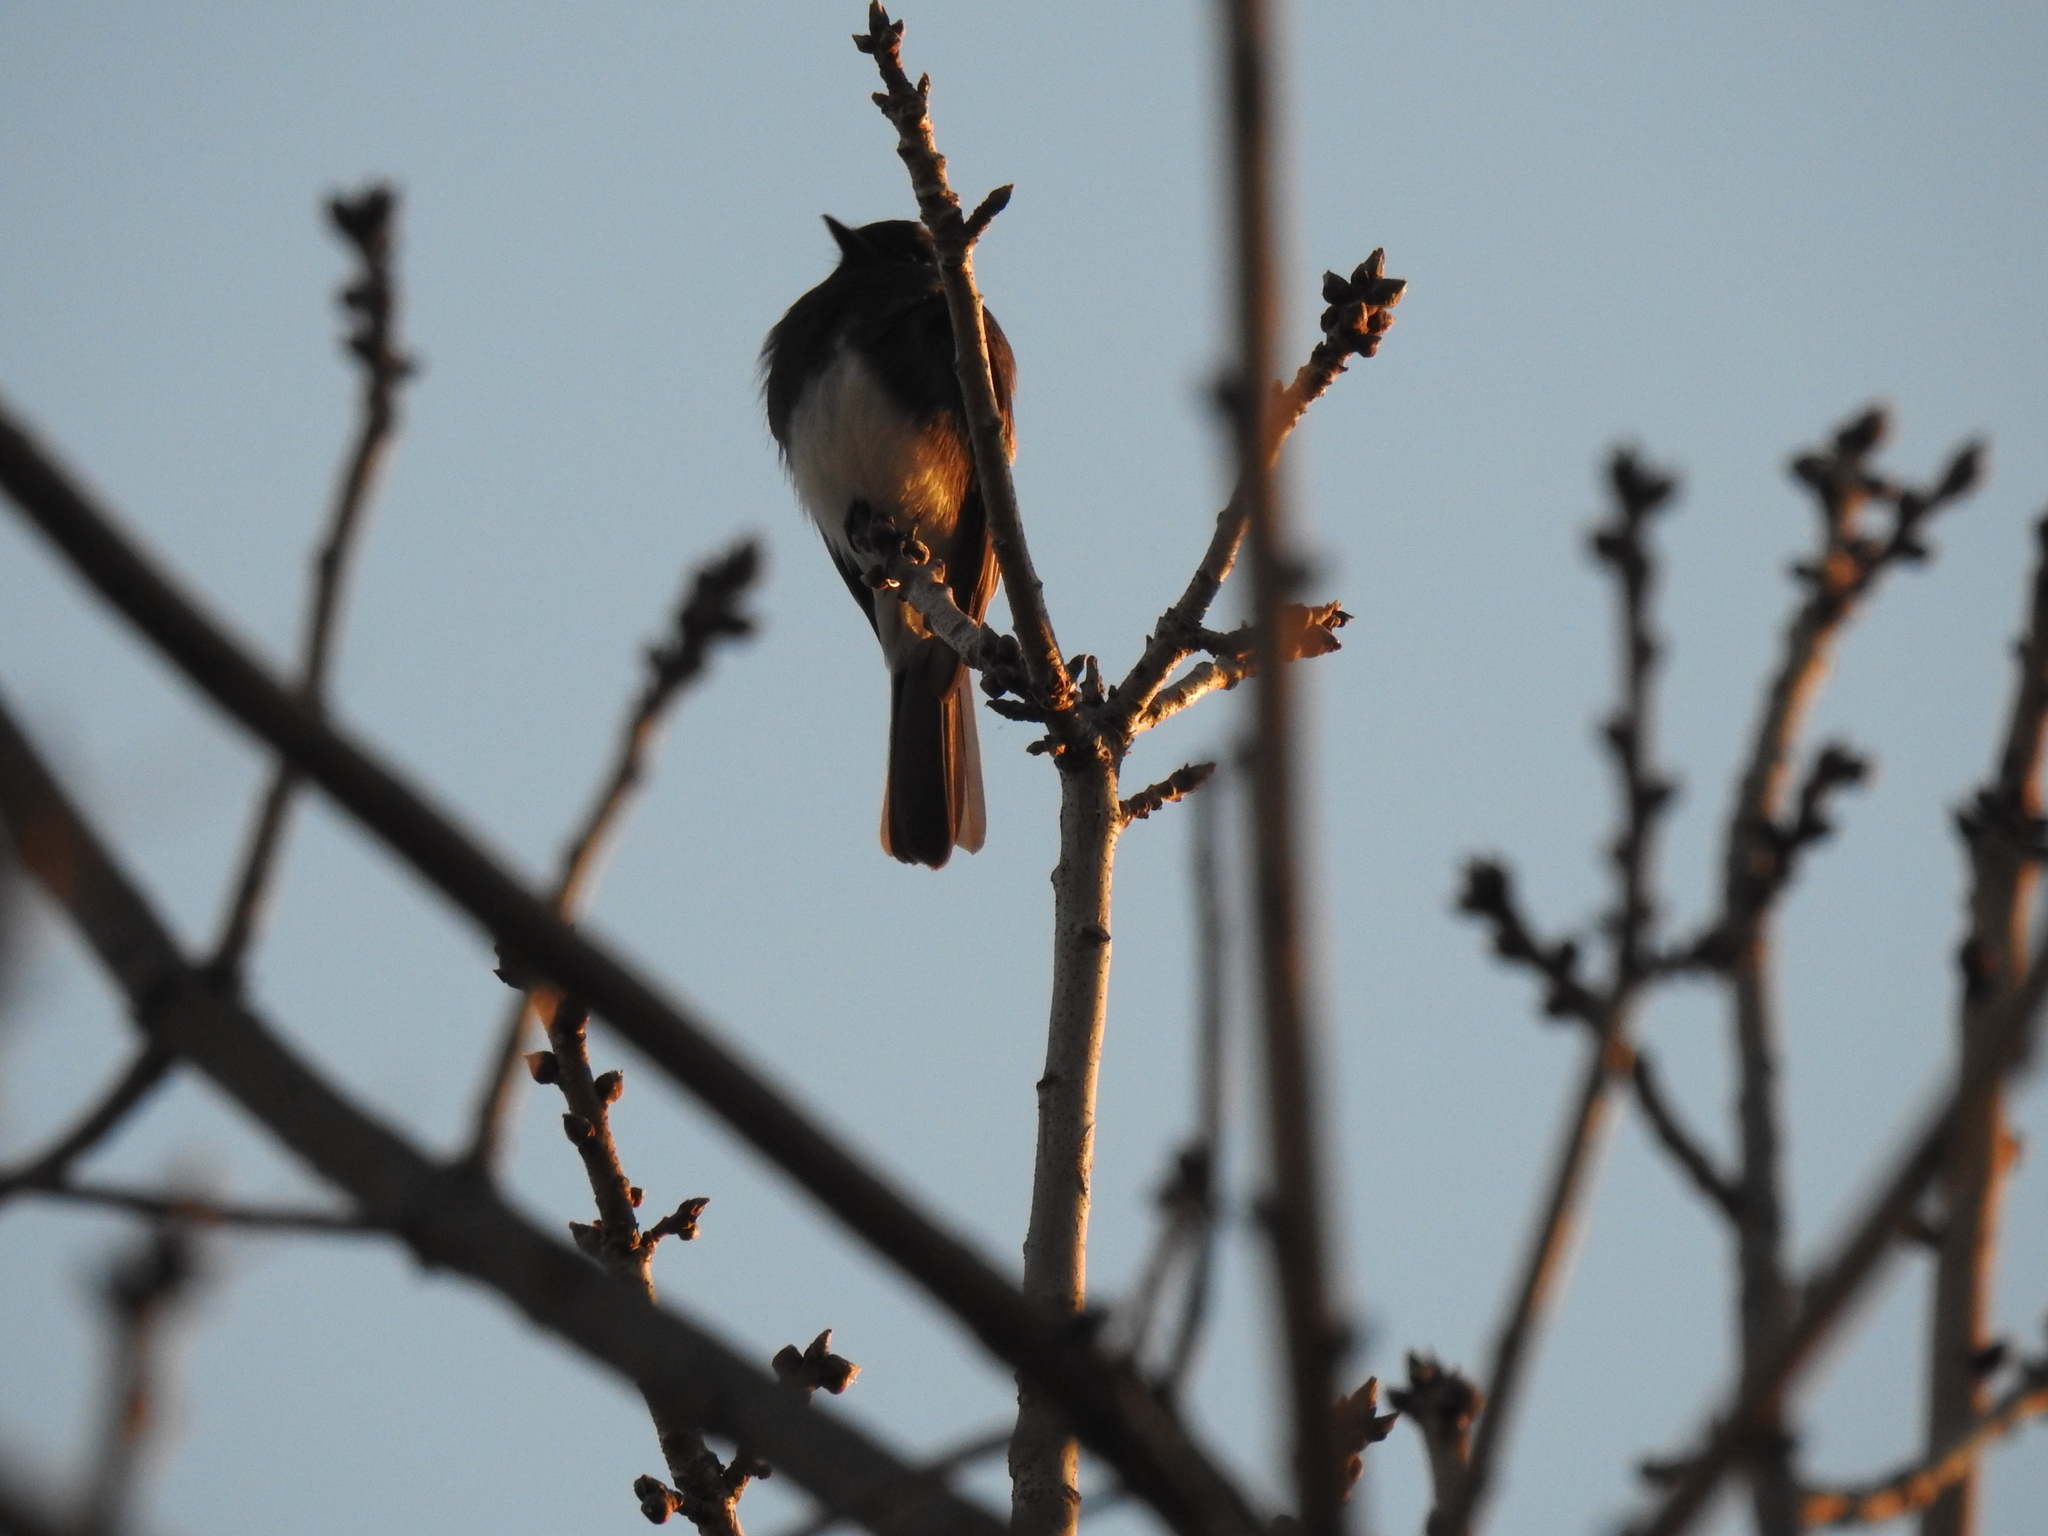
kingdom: Animalia
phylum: Chordata
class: Aves
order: Passeriformes
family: Tyrannidae
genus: Sayornis
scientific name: Sayornis nigricans
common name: Black phoebe
